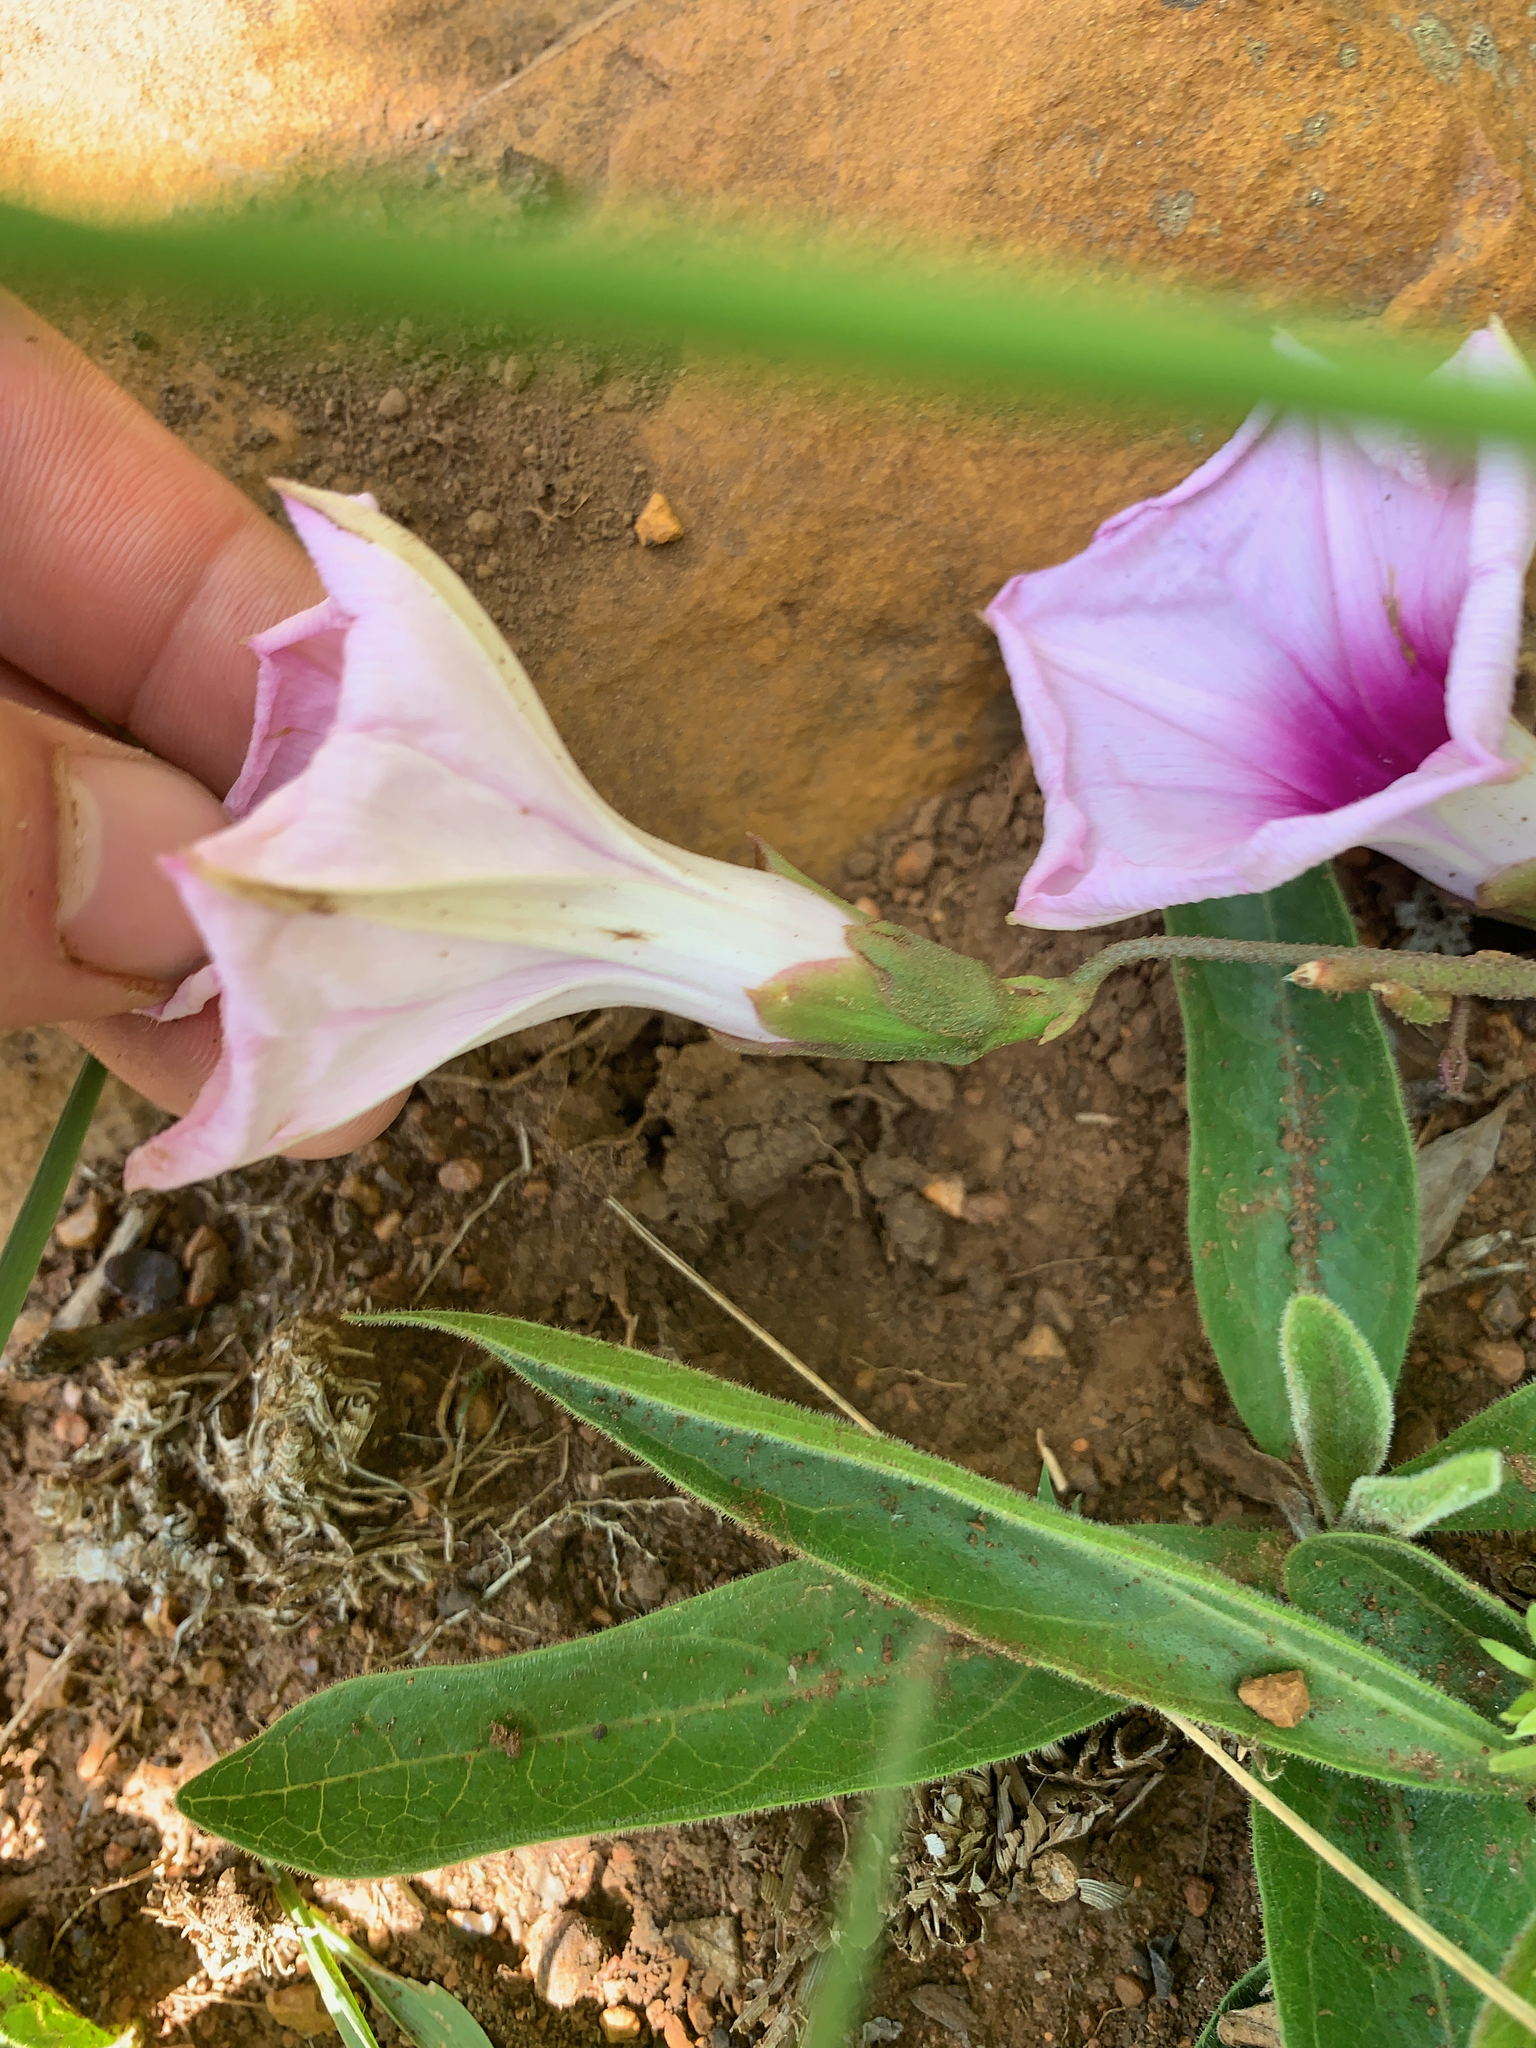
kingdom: Plantae
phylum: Tracheophyta
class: Magnoliopsida
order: Solanales
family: Convolvulaceae
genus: Ipomoea
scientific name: Ipomoea bathycolpos
